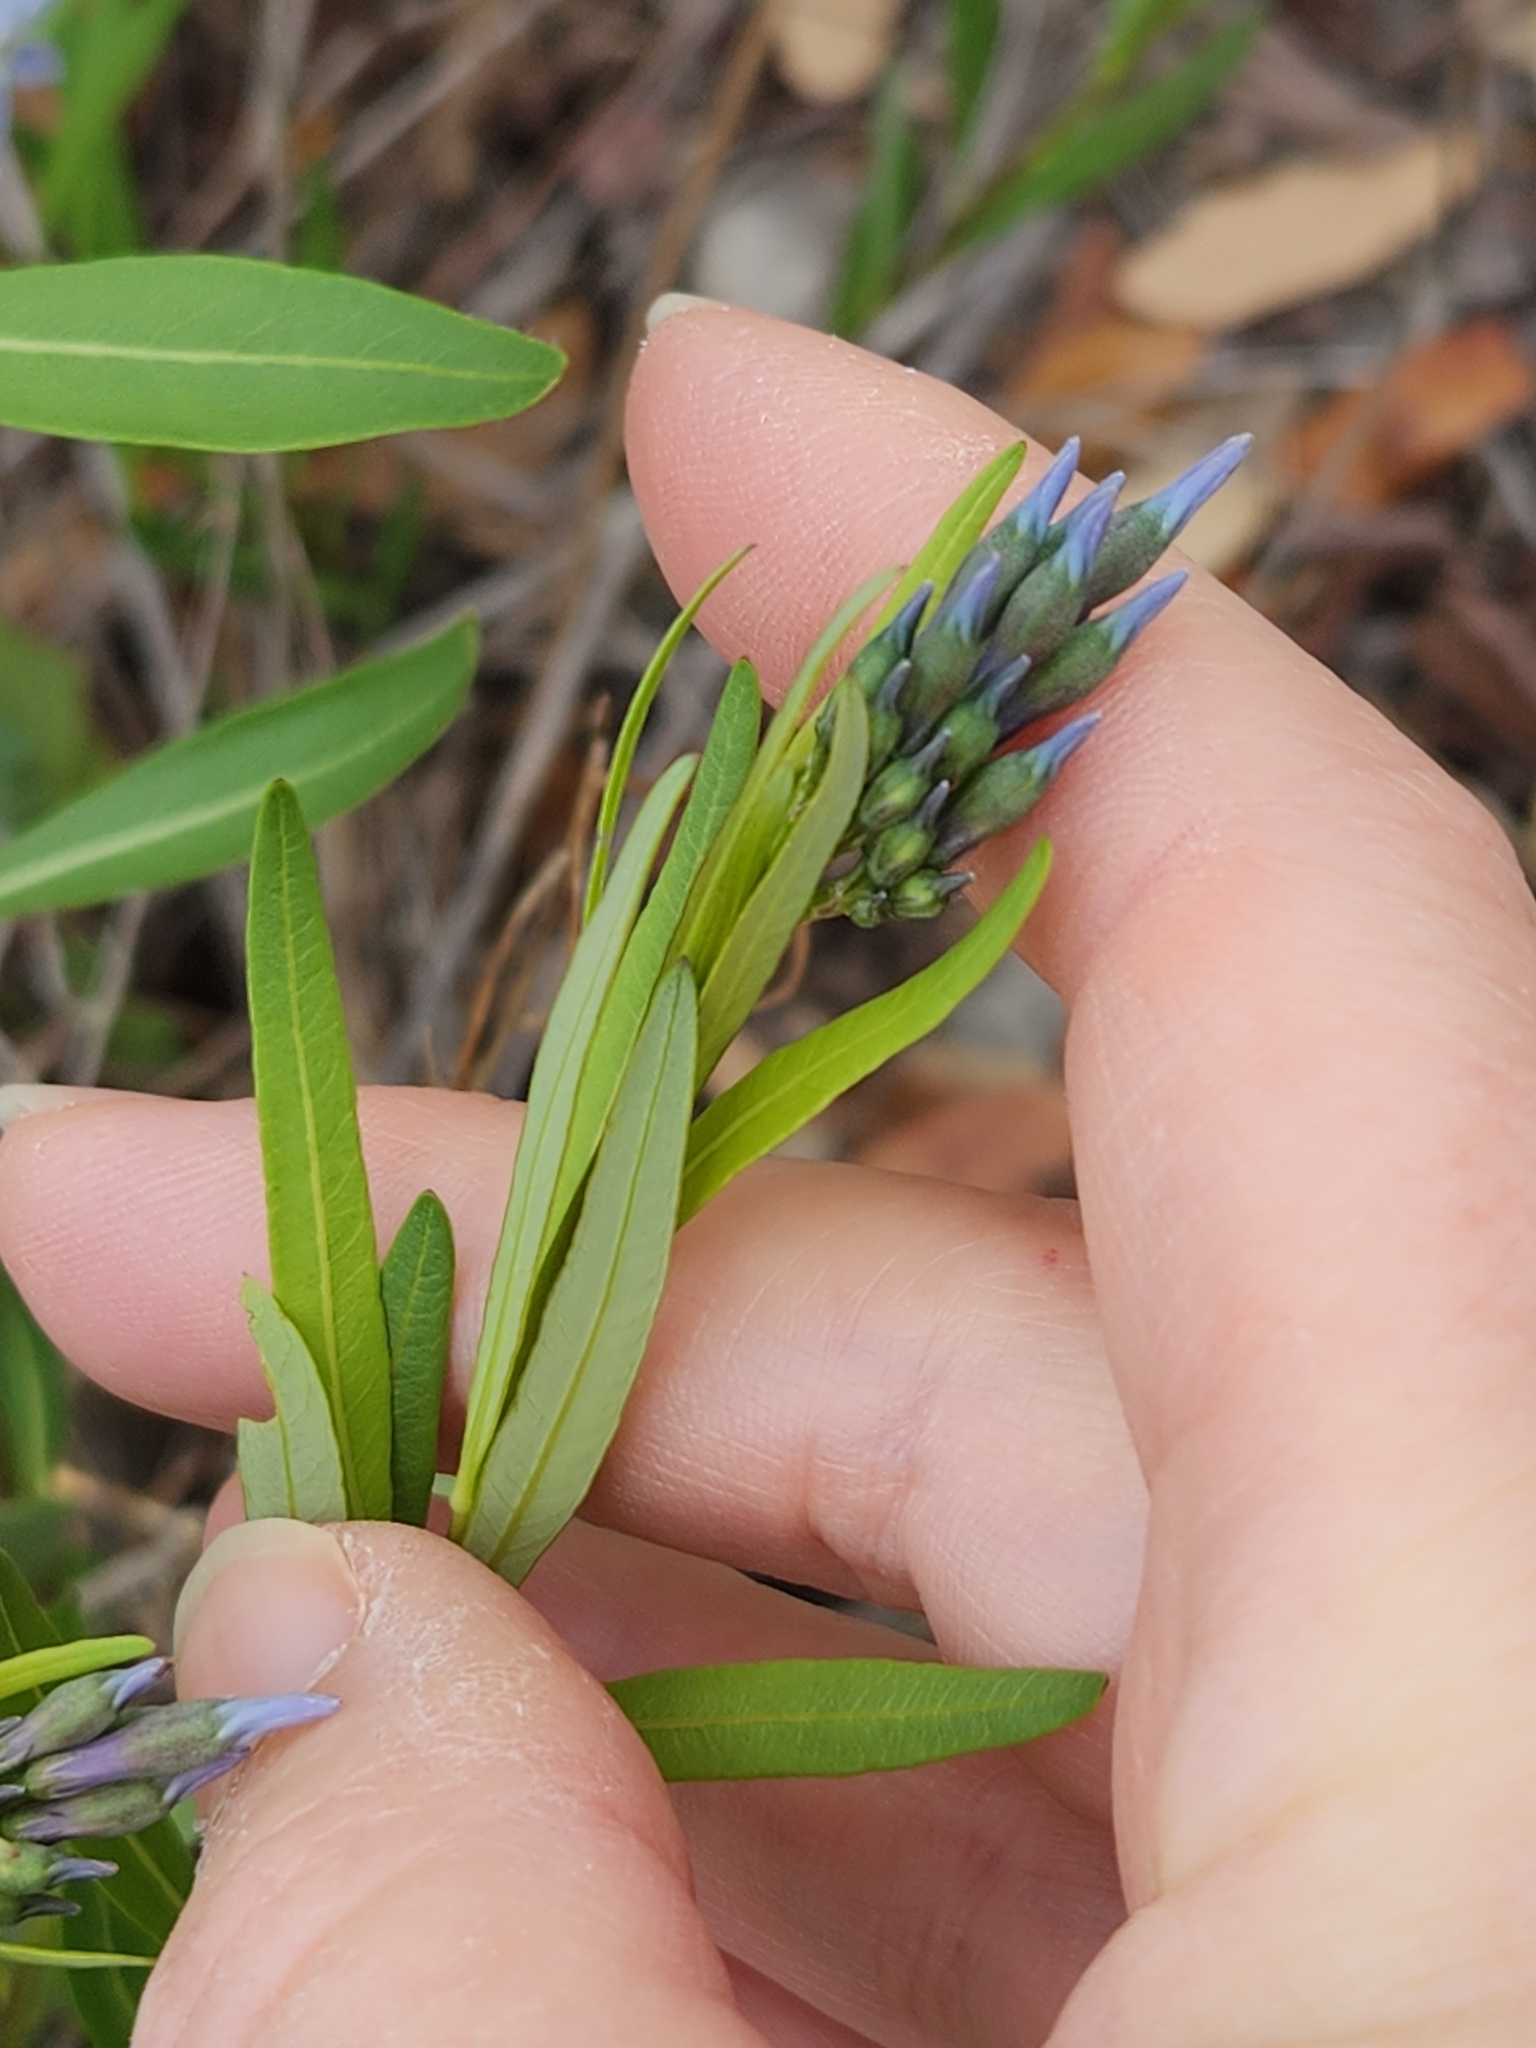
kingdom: Plantae
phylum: Tracheophyta
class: Magnoliopsida
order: Gentianales
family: Apocynaceae
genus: Amsonia
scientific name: Amsonia ciliata
